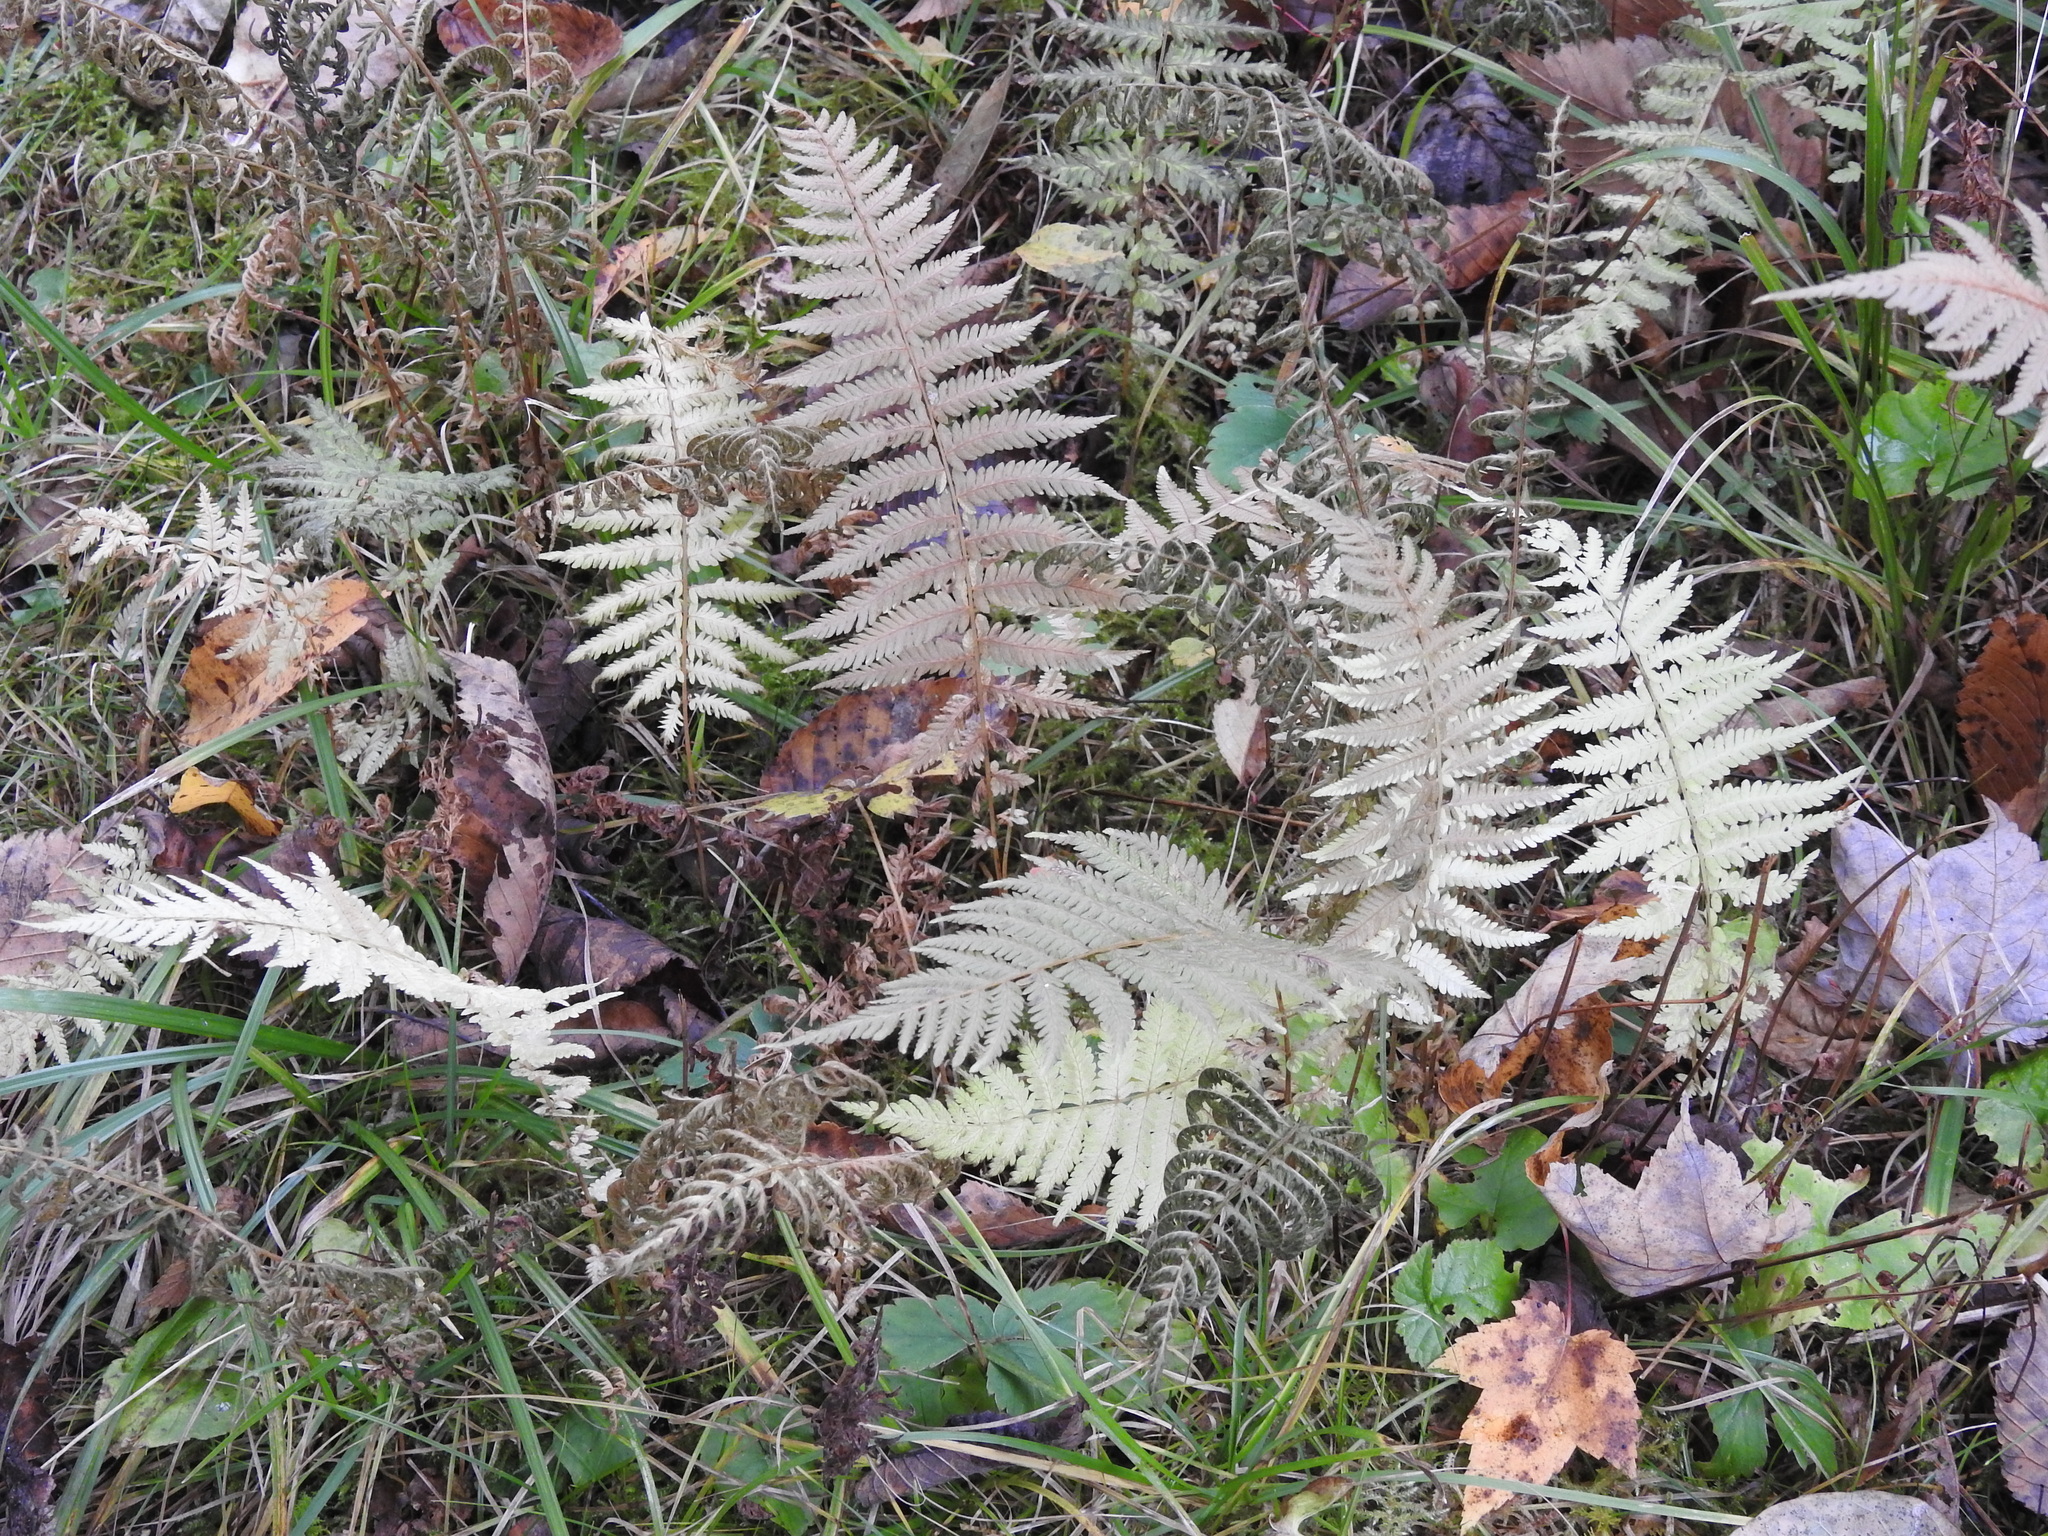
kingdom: Plantae
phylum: Tracheophyta
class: Polypodiopsida
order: Polypodiales
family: Thelypteridaceae
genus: Amauropelta
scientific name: Amauropelta noveboracensis
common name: New york fern
